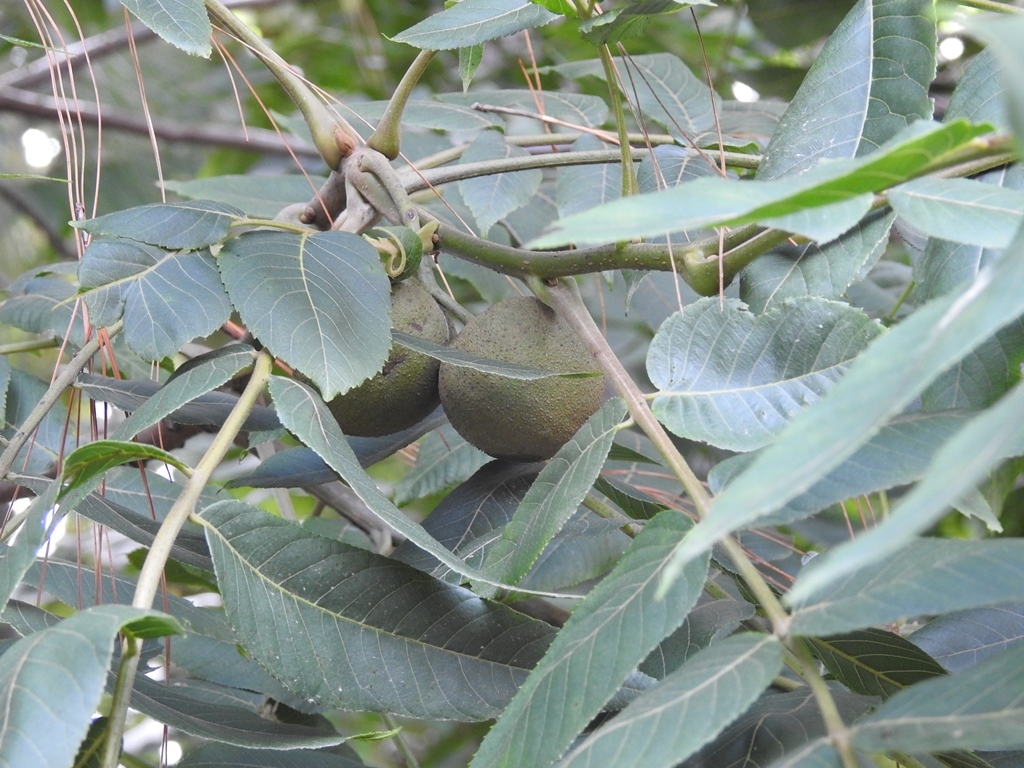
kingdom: Plantae
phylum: Tracheophyta
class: Magnoliopsida
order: Fagales
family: Juglandaceae
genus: Juglans
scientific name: Juglans olanchana
